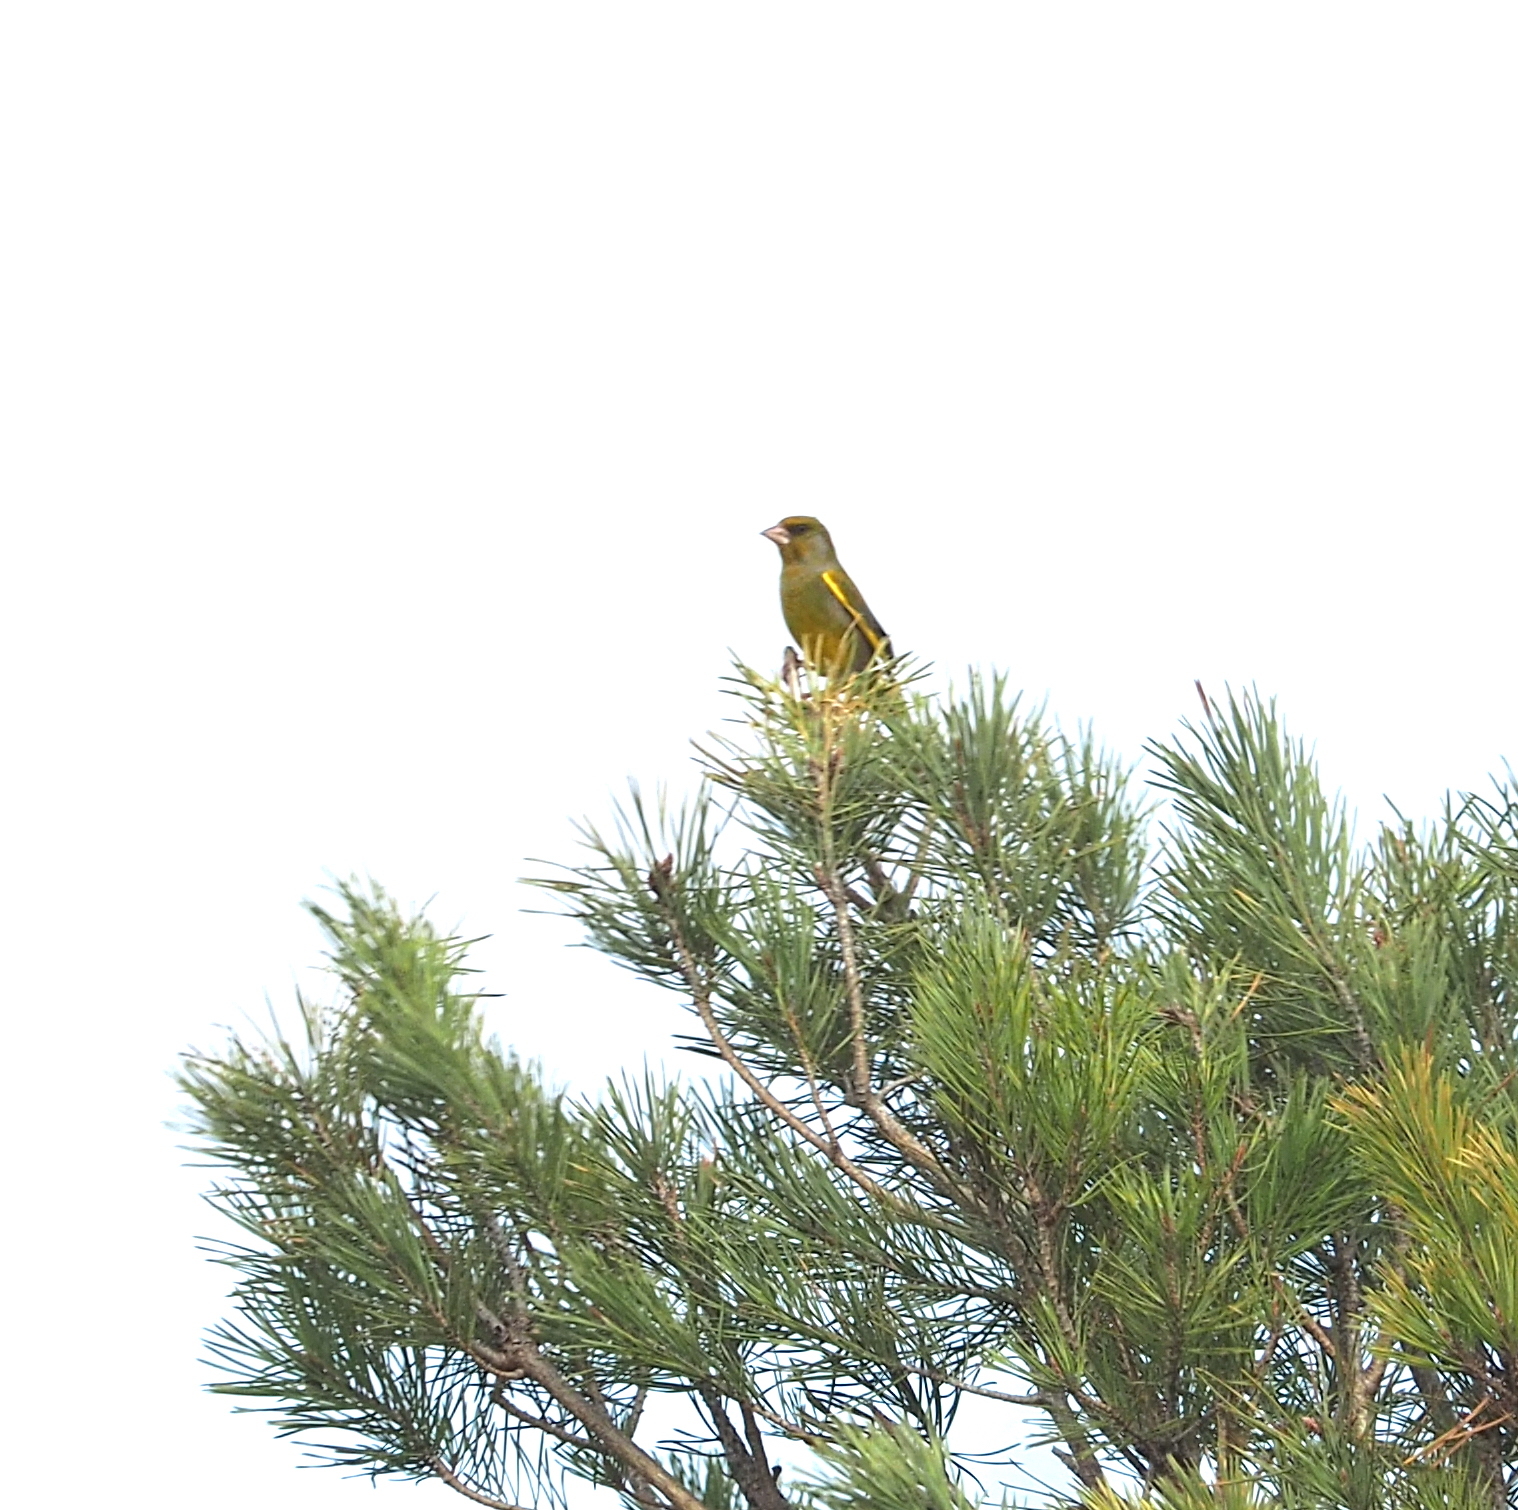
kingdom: Plantae
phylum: Tracheophyta
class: Liliopsida
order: Poales
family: Poaceae
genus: Chloris
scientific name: Chloris chloris
